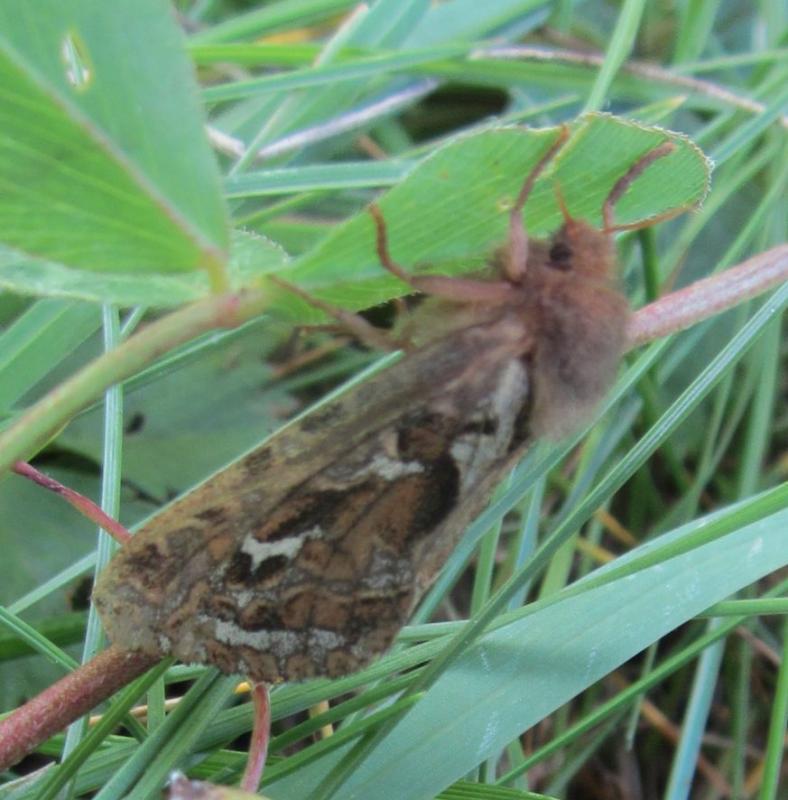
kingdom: Animalia
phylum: Arthropoda
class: Insecta
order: Lepidoptera
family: Hepialidae
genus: Korscheltellus
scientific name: Korscheltellus fusconebulosus
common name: Map-winged swift
